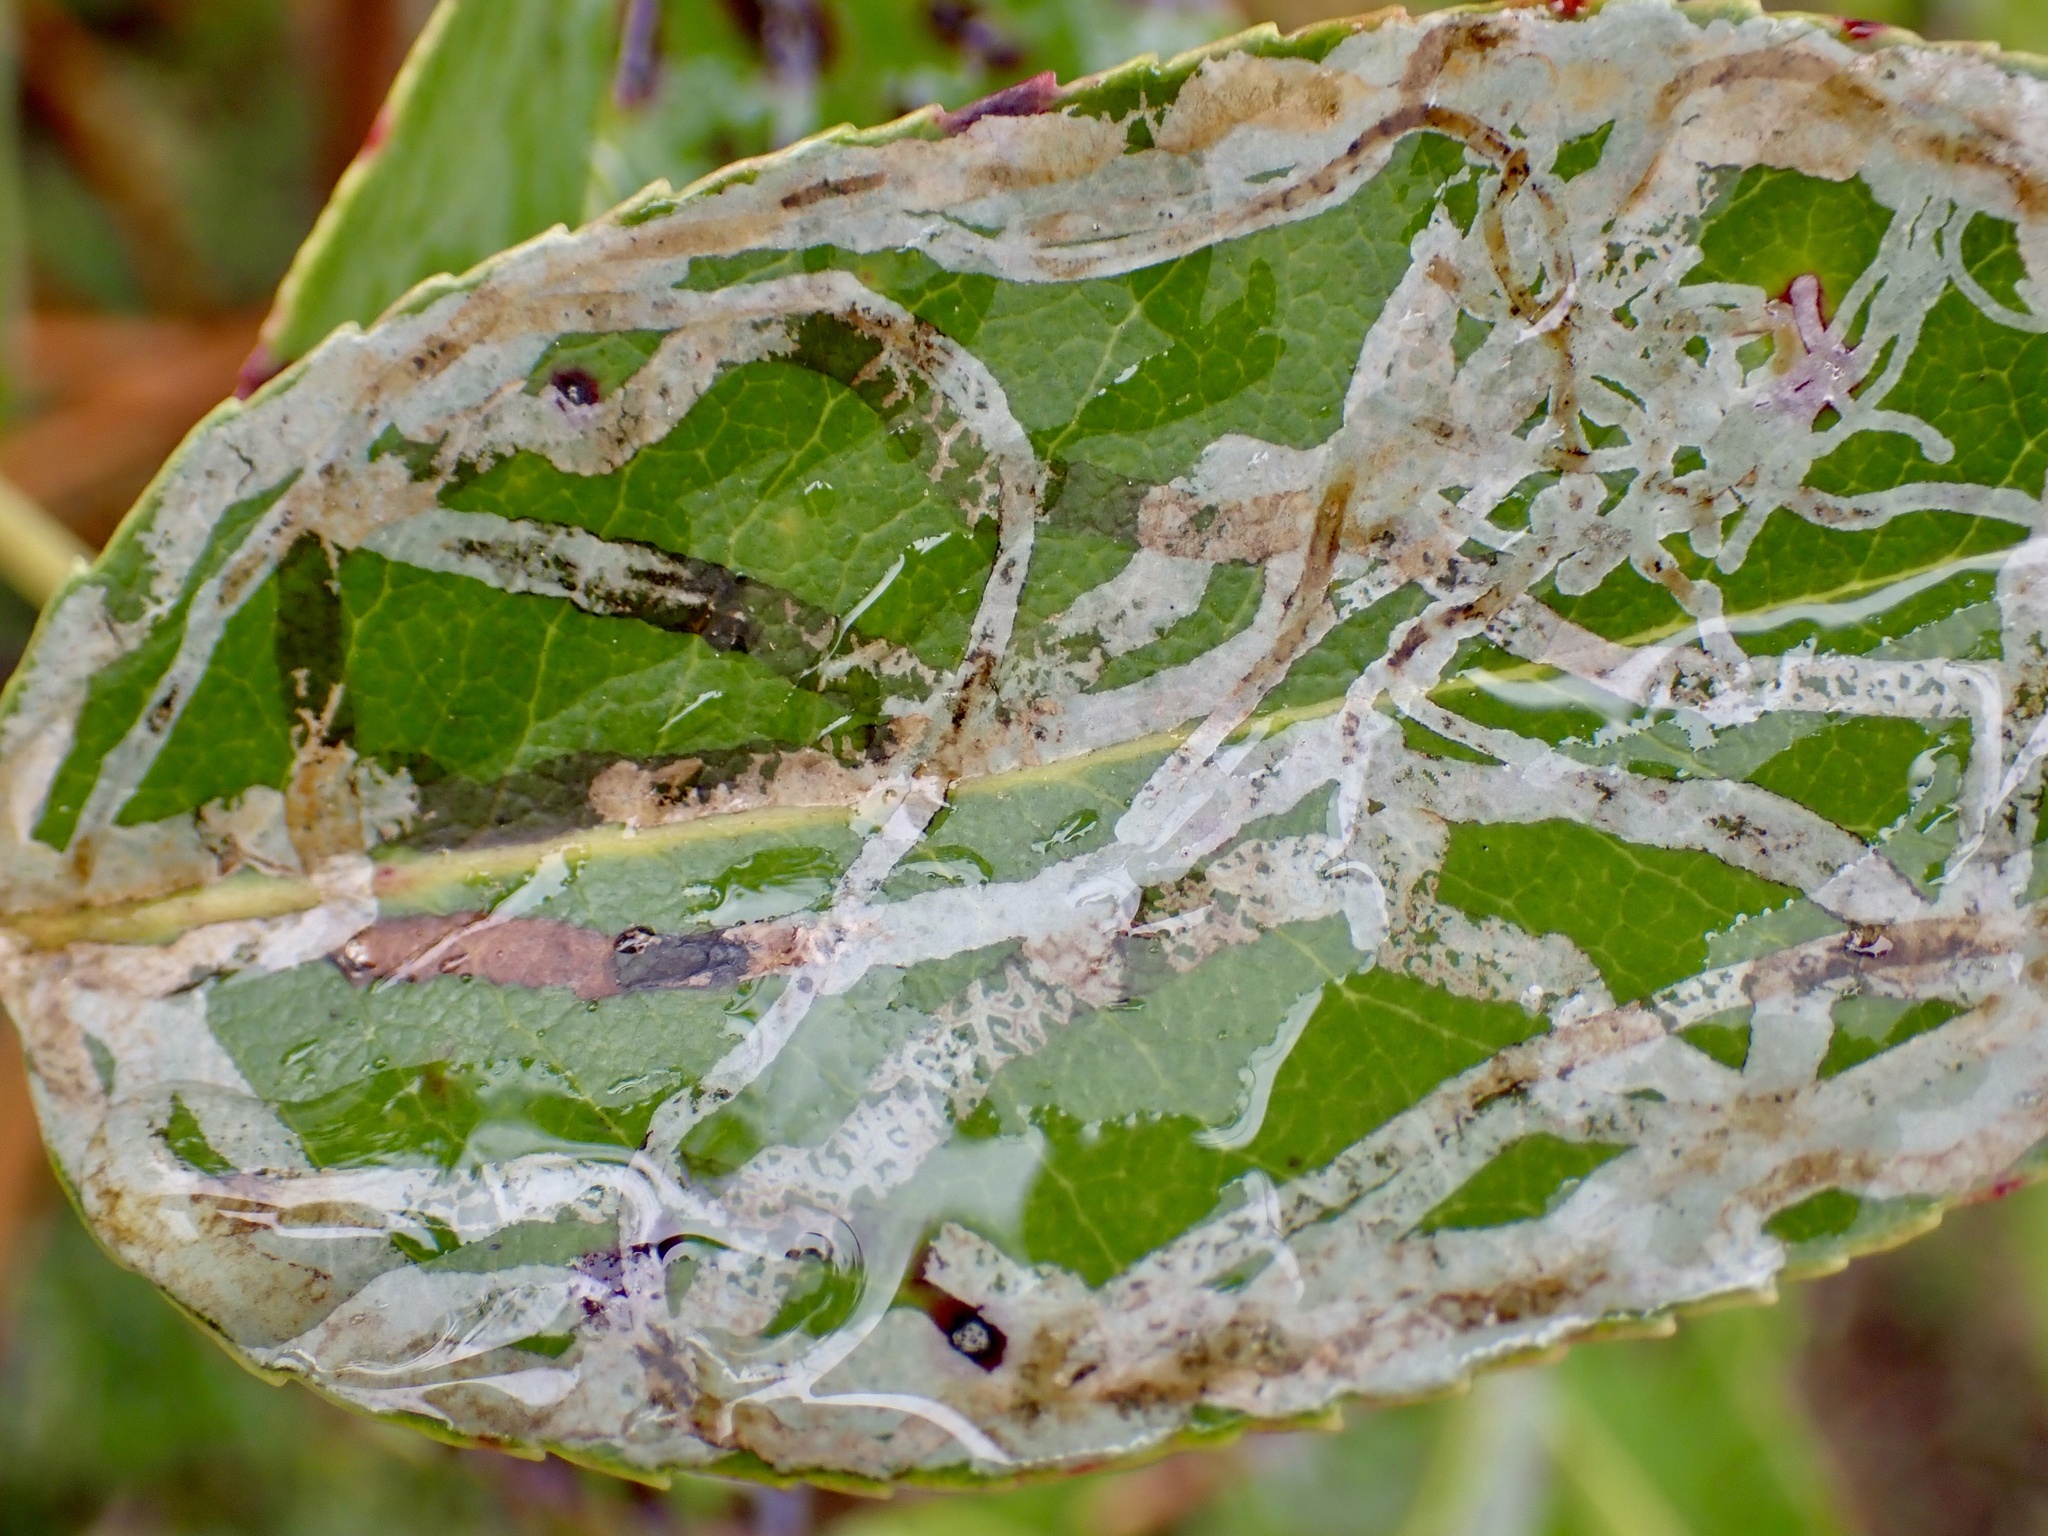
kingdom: Animalia
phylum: Arthropoda
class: Insecta
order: Lepidoptera
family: Gracillariidae
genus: Marmara
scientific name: Marmara arbutiella
